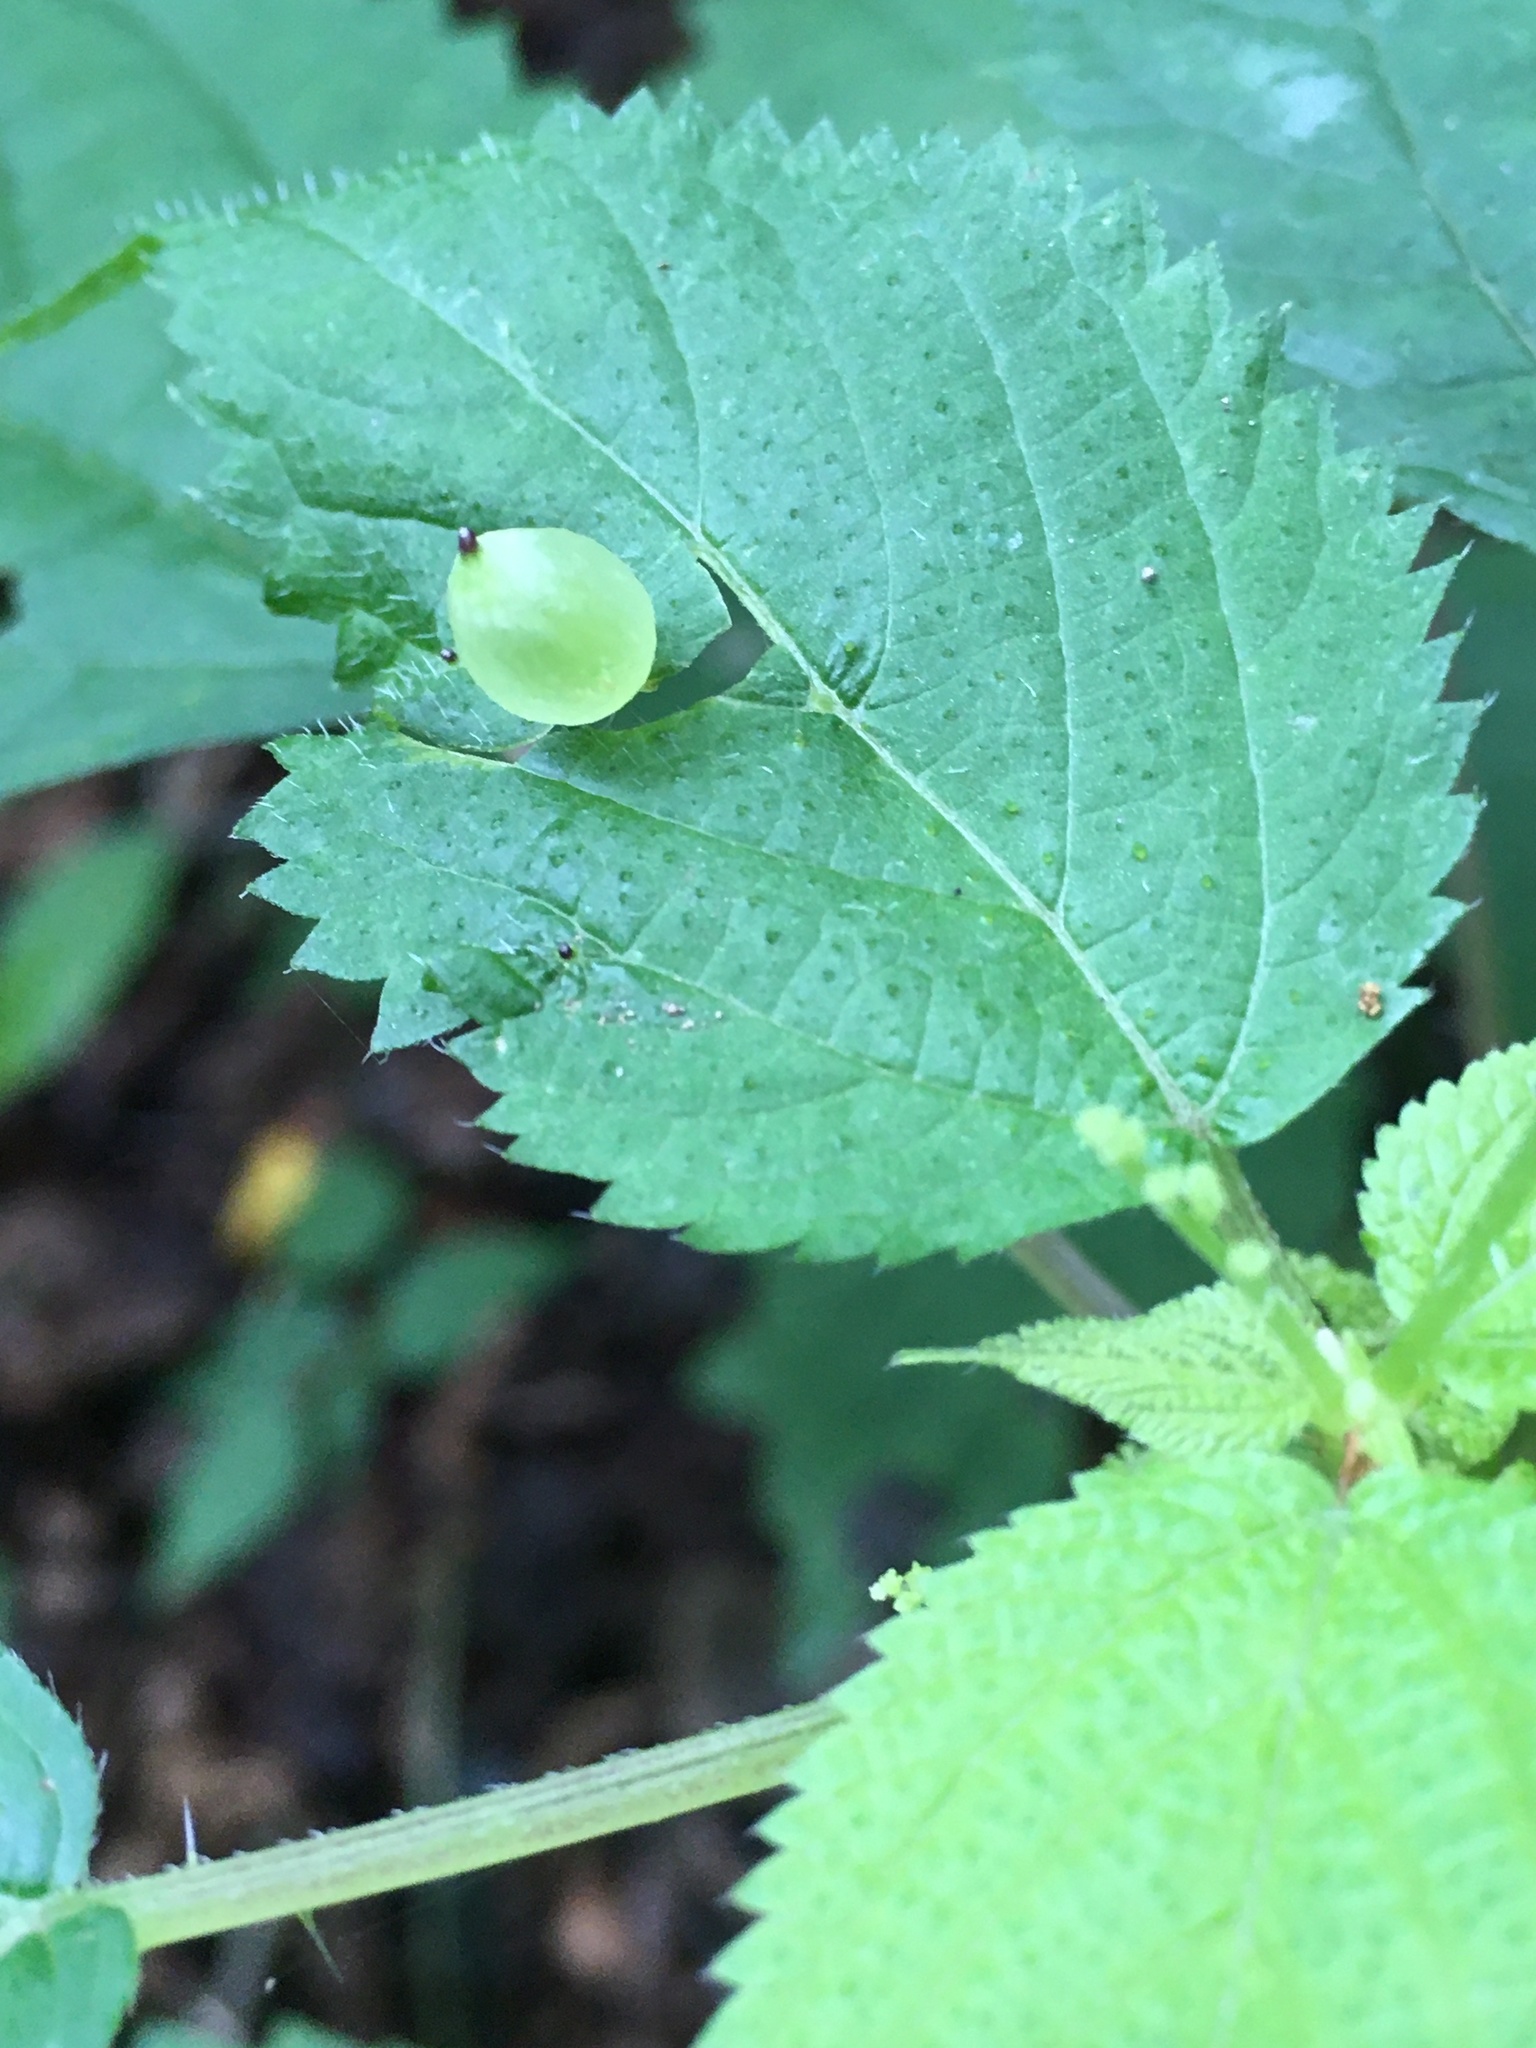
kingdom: Animalia
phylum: Arthropoda
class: Insecta
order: Diptera
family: Cecidomyiidae
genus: Dasineura
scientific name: Dasineura investita
